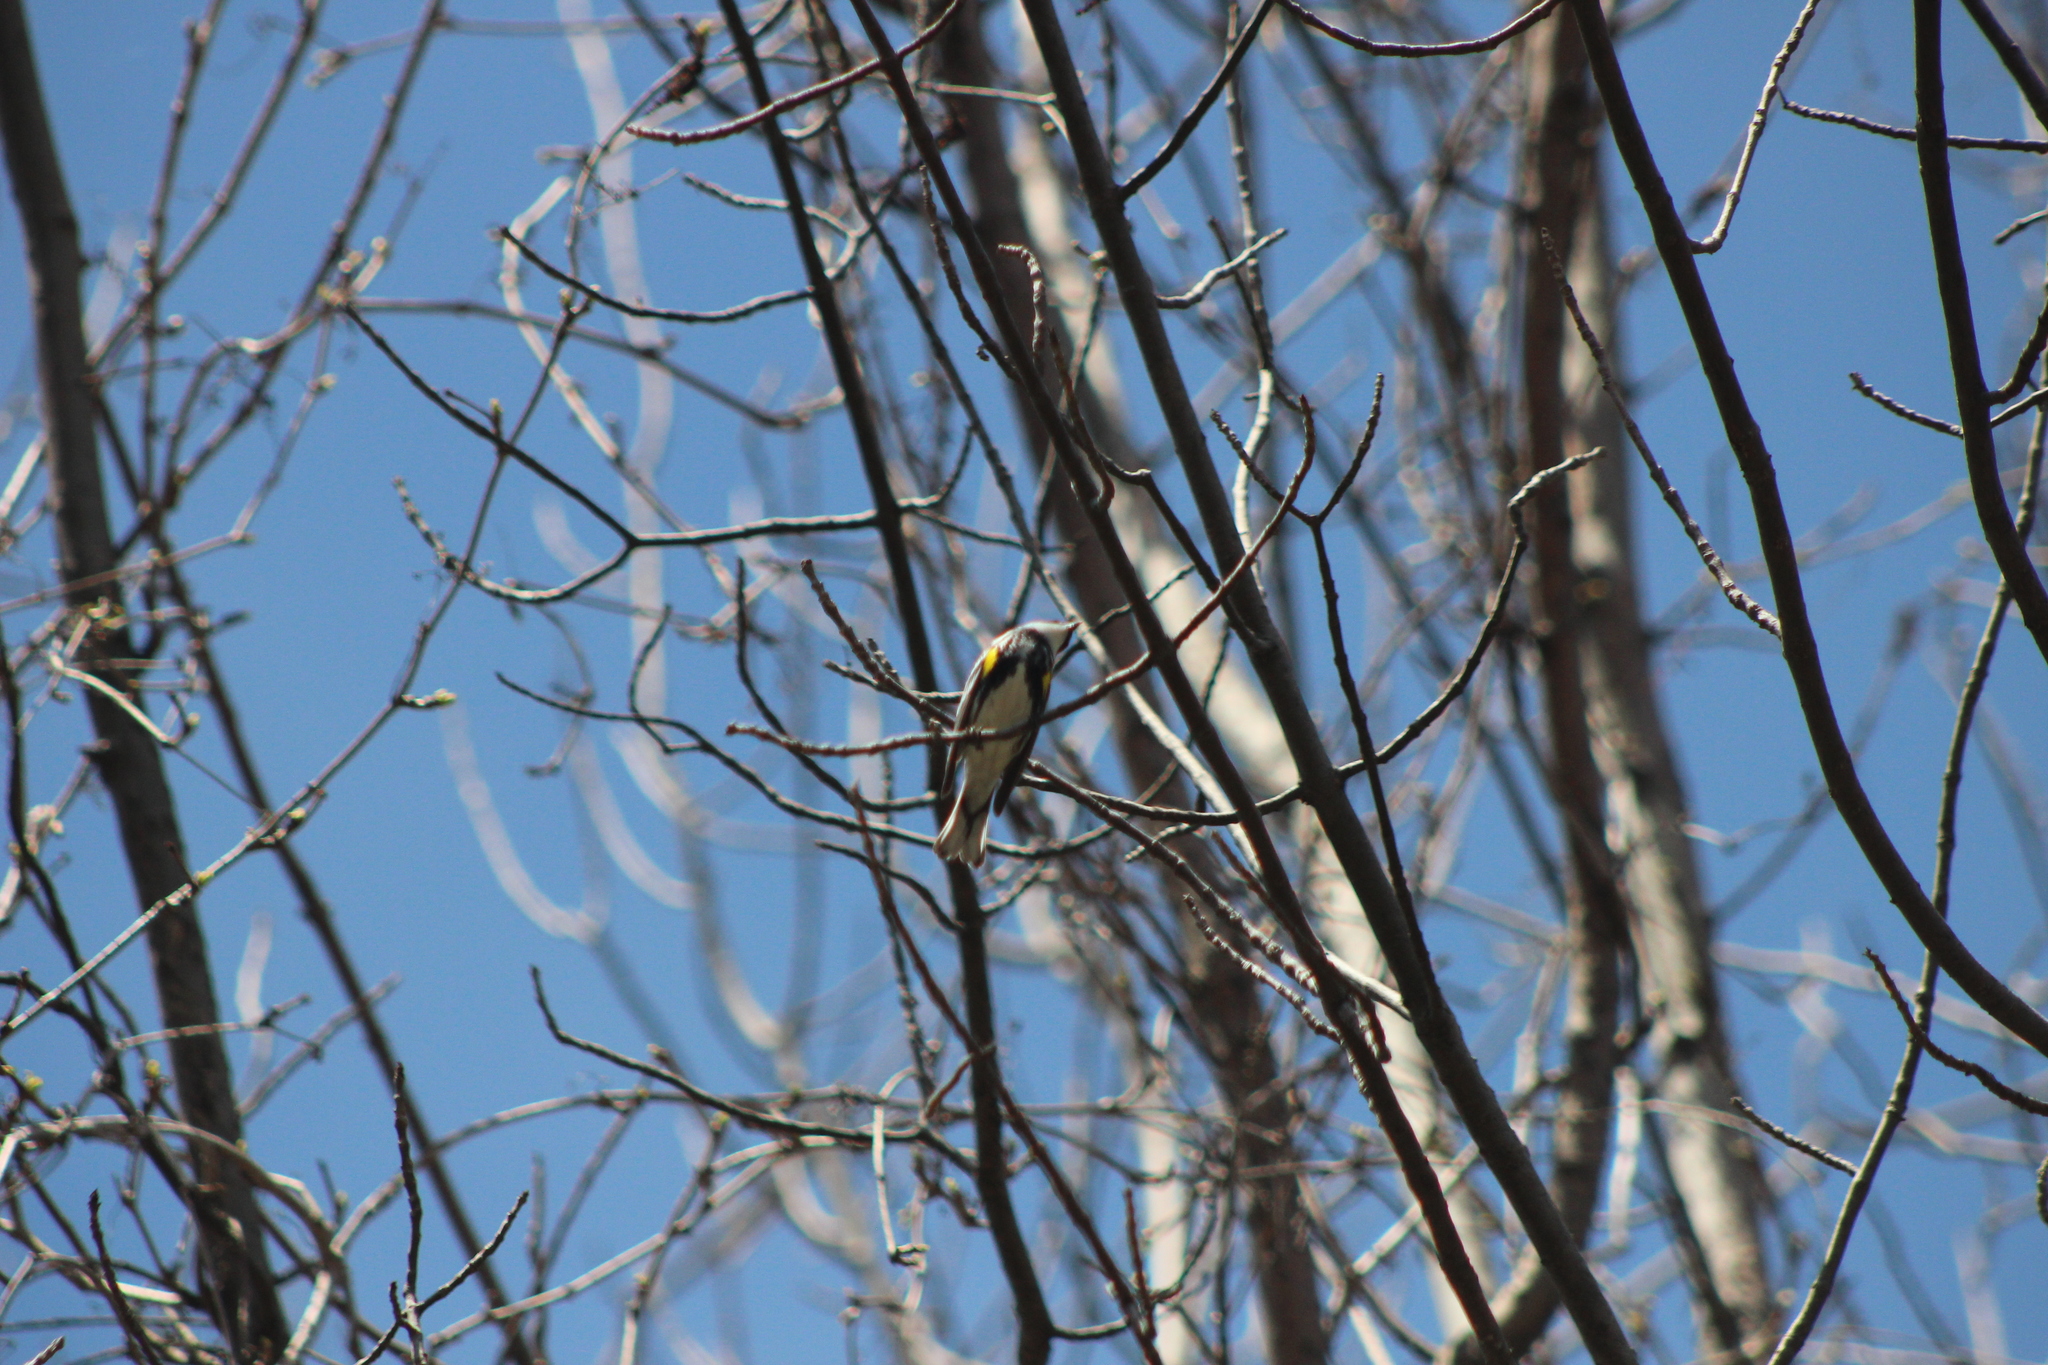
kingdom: Animalia
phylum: Chordata
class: Aves
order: Passeriformes
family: Parulidae
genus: Setophaga
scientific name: Setophaga coronata
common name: Myrtle warbler
